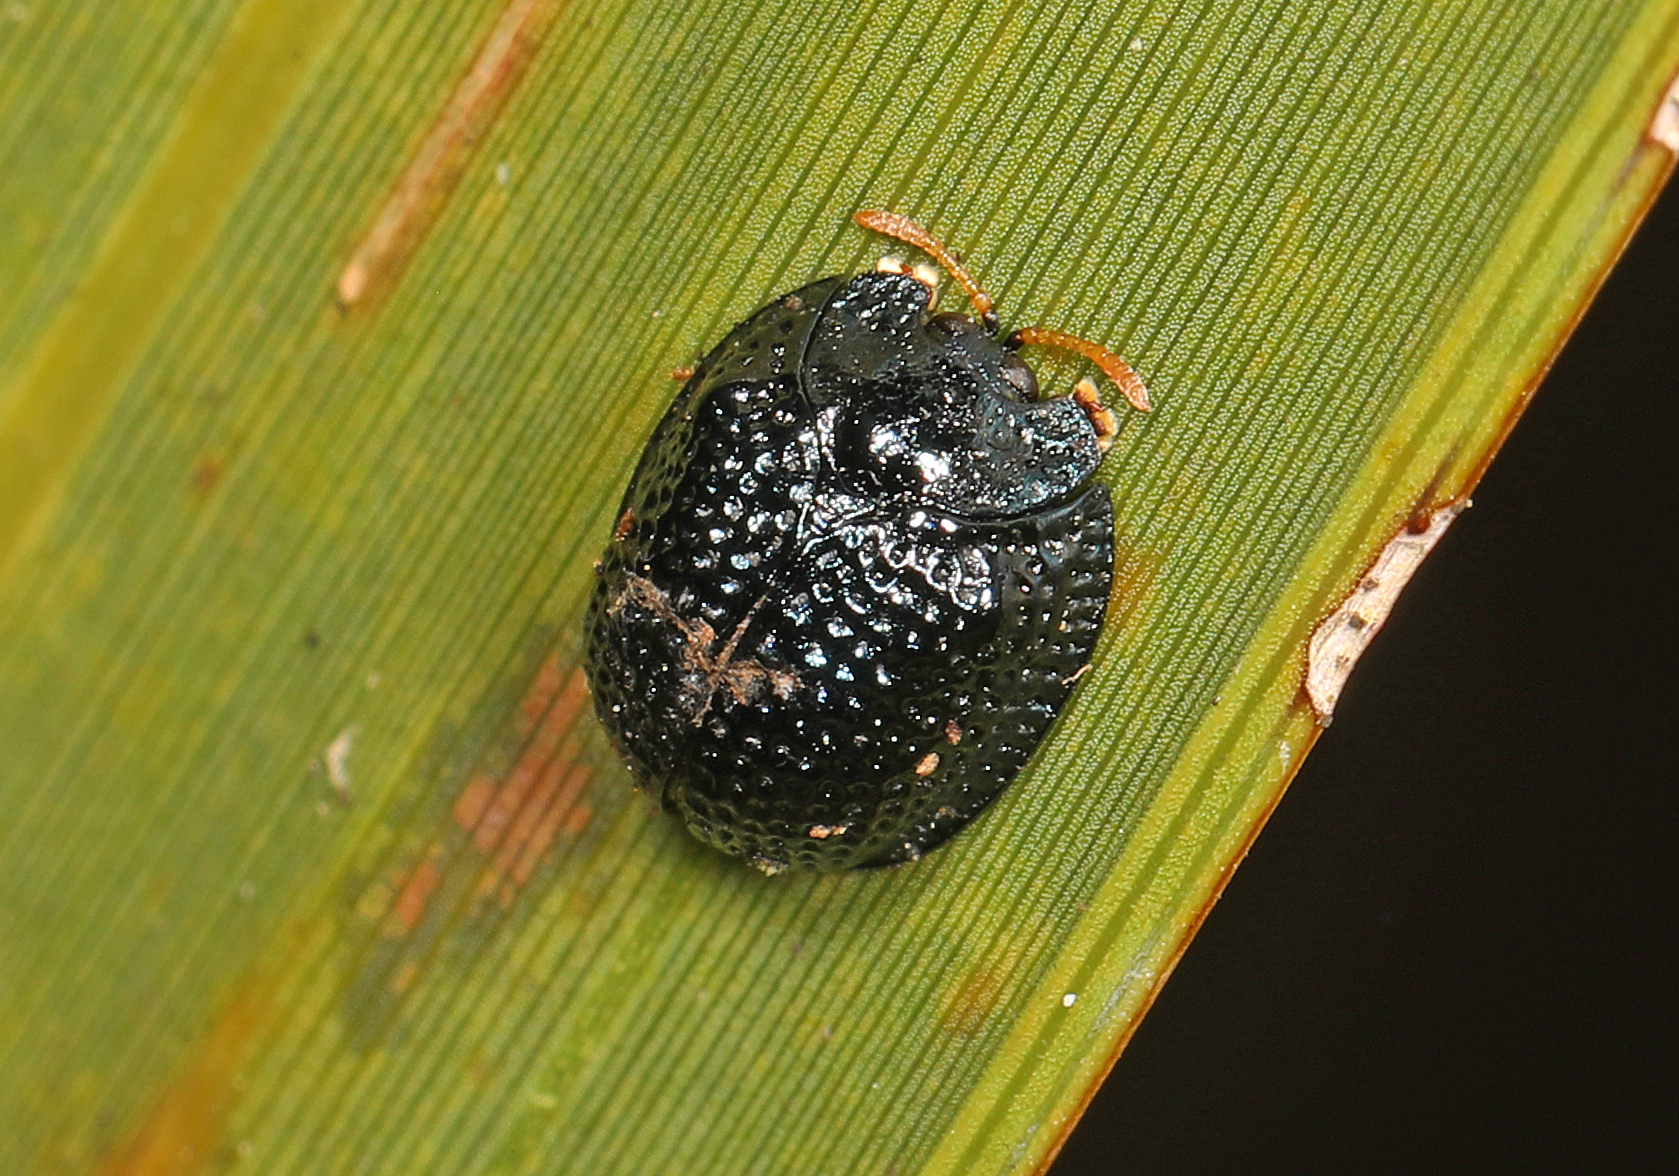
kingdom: Animalia
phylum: Arthropoda
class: Insecta
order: Coleoptera
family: Chrysomelidae
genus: Hemisphaerota
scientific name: Hemisphaerota cyanea
